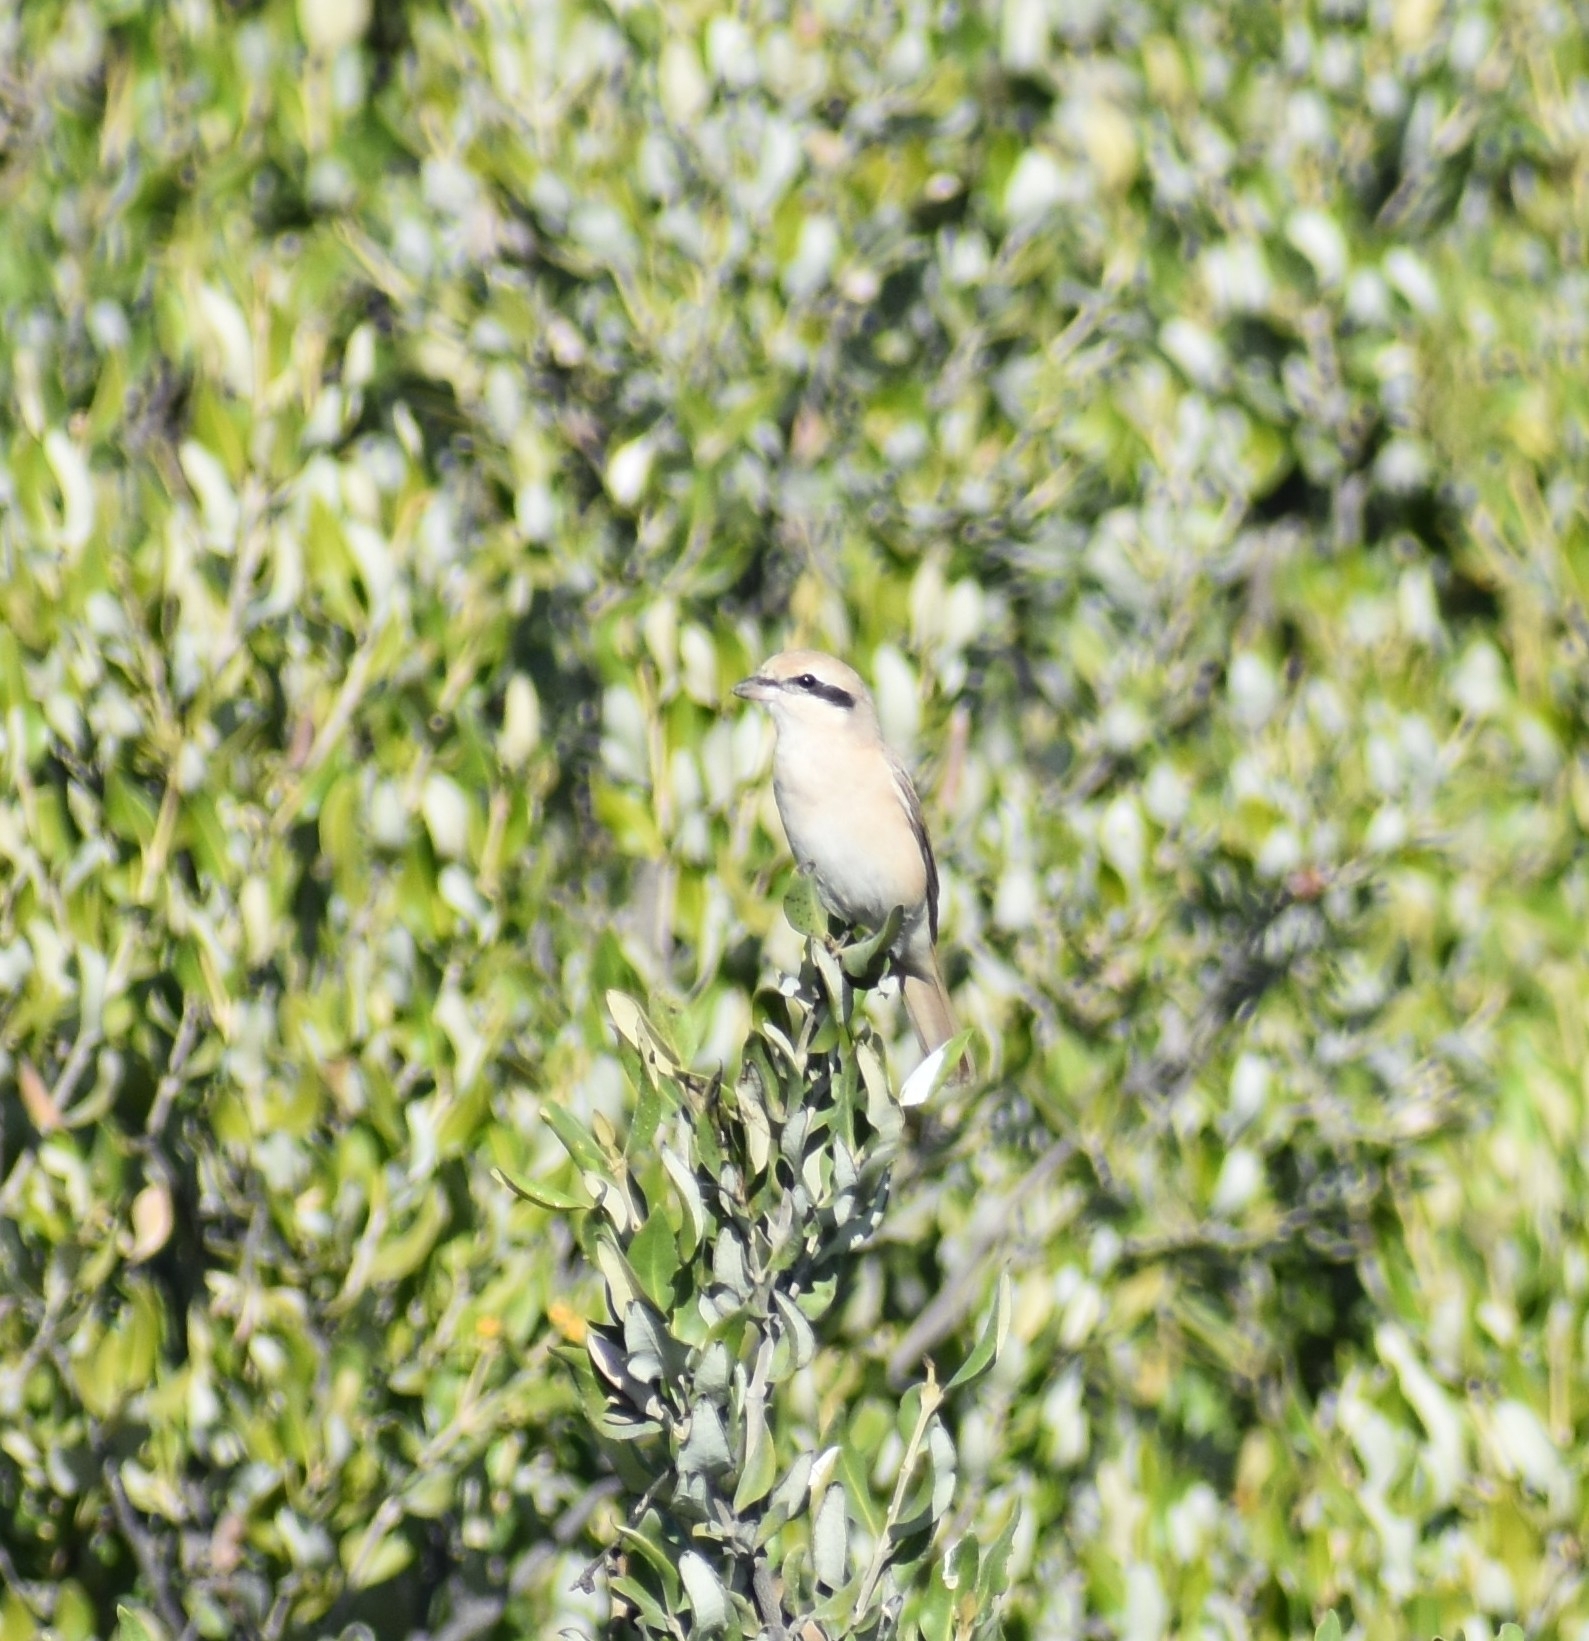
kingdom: Animalia
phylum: Chordata
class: Aves
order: Passeriformes
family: Laniidae
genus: Lanius
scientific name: Lanius isabellinus
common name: Isabelline shrike
